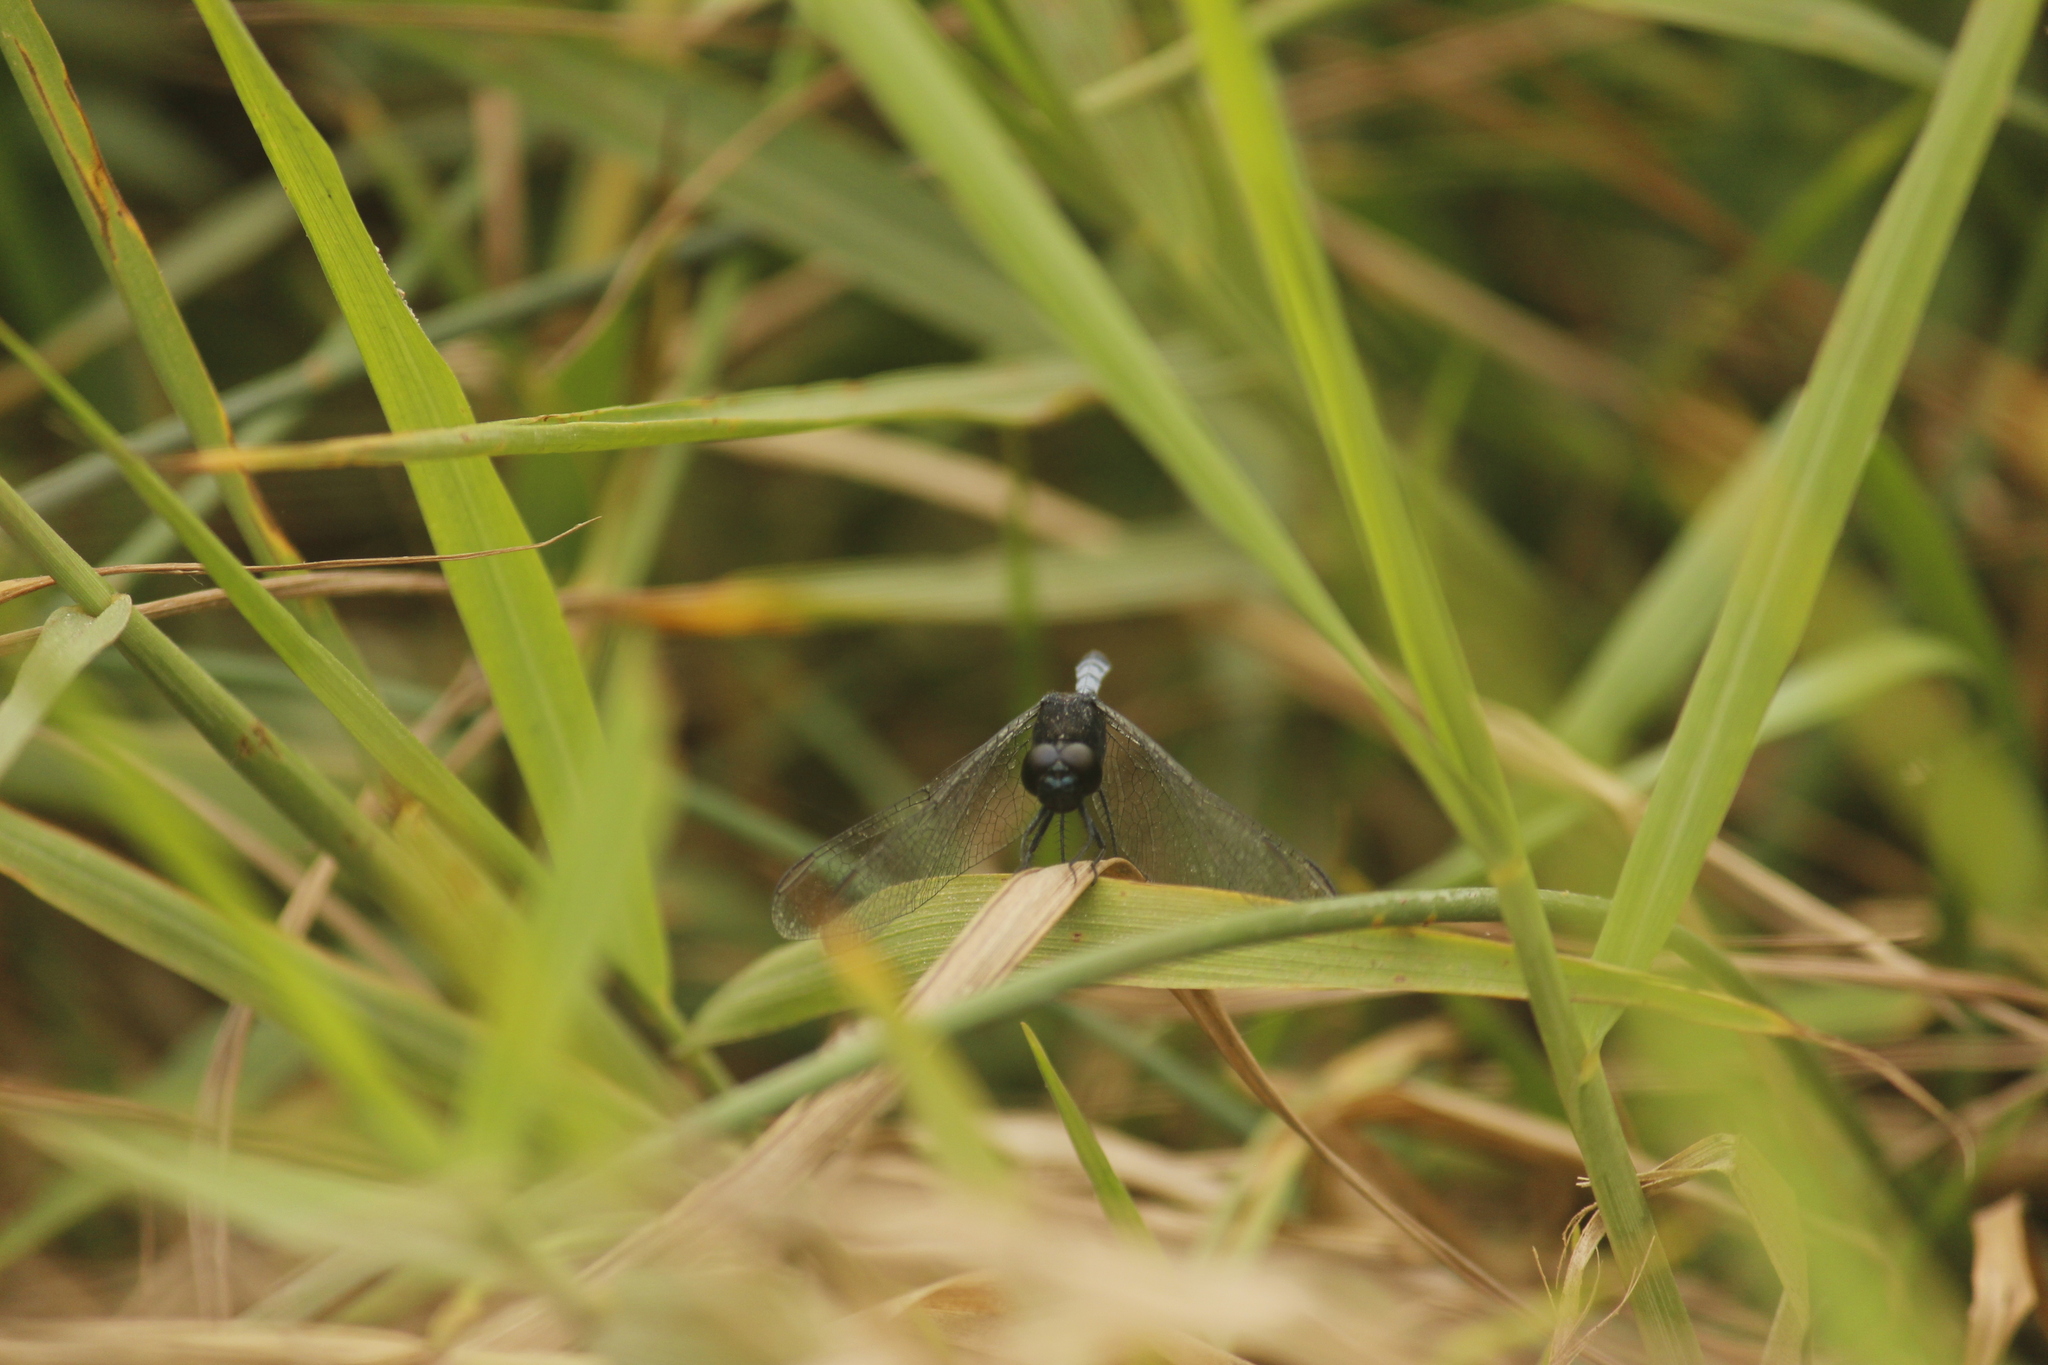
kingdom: Animalia
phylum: Arthropoda
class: Insecta
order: Odonata
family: Libellulidae
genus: Erythrodiplax
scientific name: Erythrodiplax cleopatra
